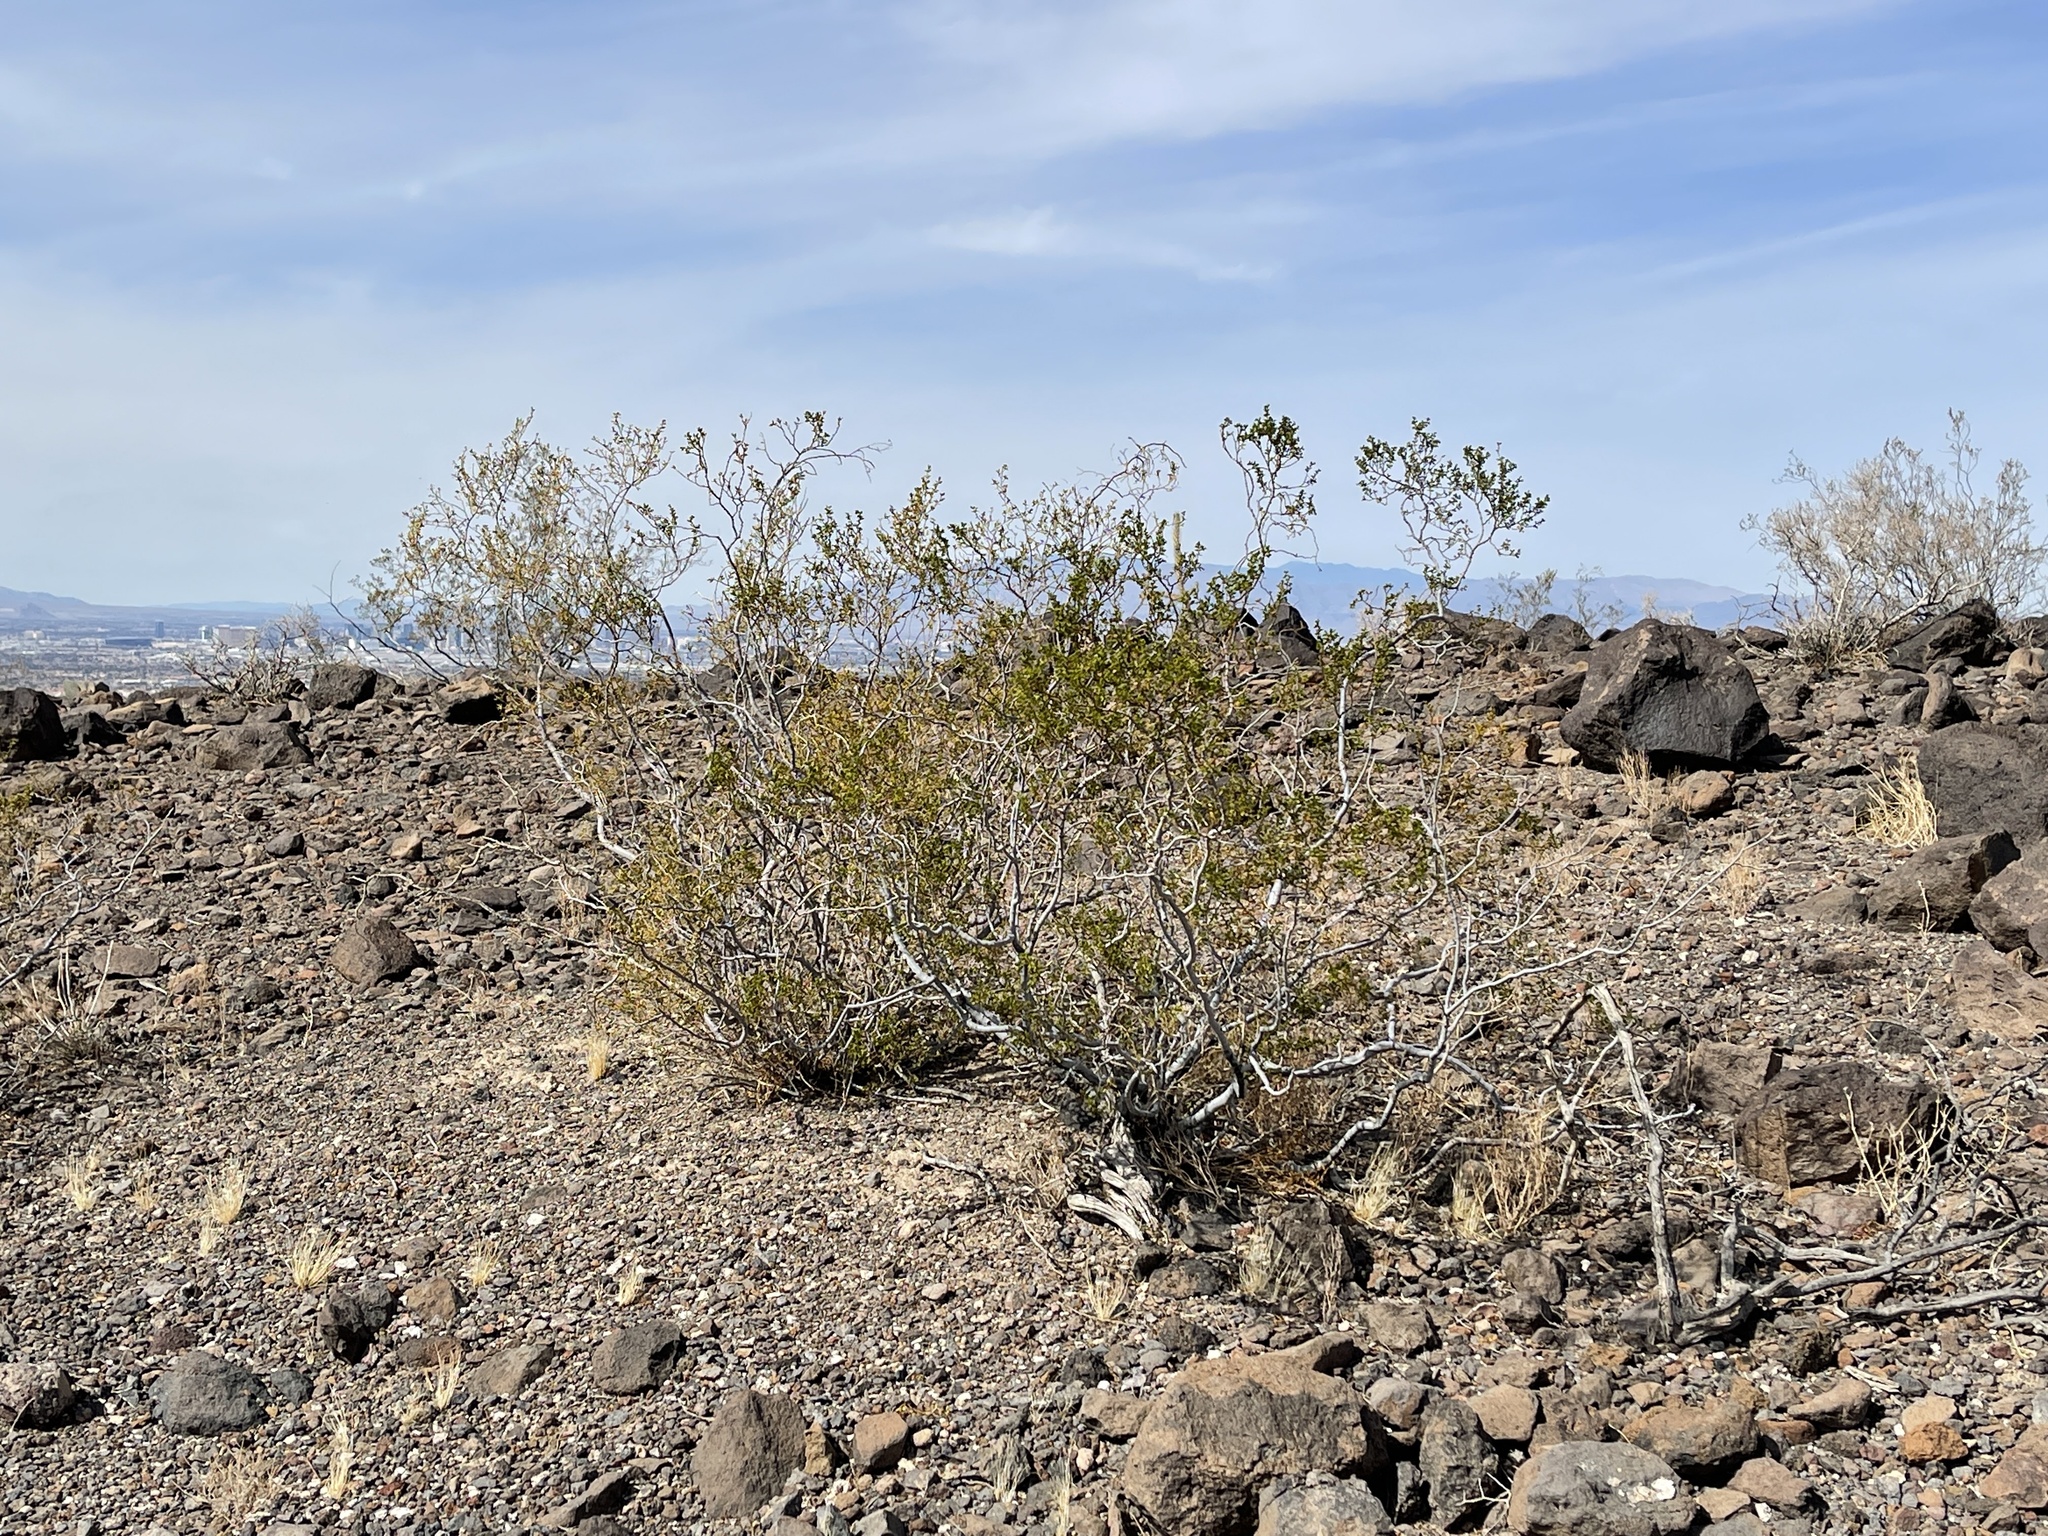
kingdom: Plantae
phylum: Tracheophyta
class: Magnoliopsida
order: Zygophyllales
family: Zygophyllaceae
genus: Larrea
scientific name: Larrea tridentata
